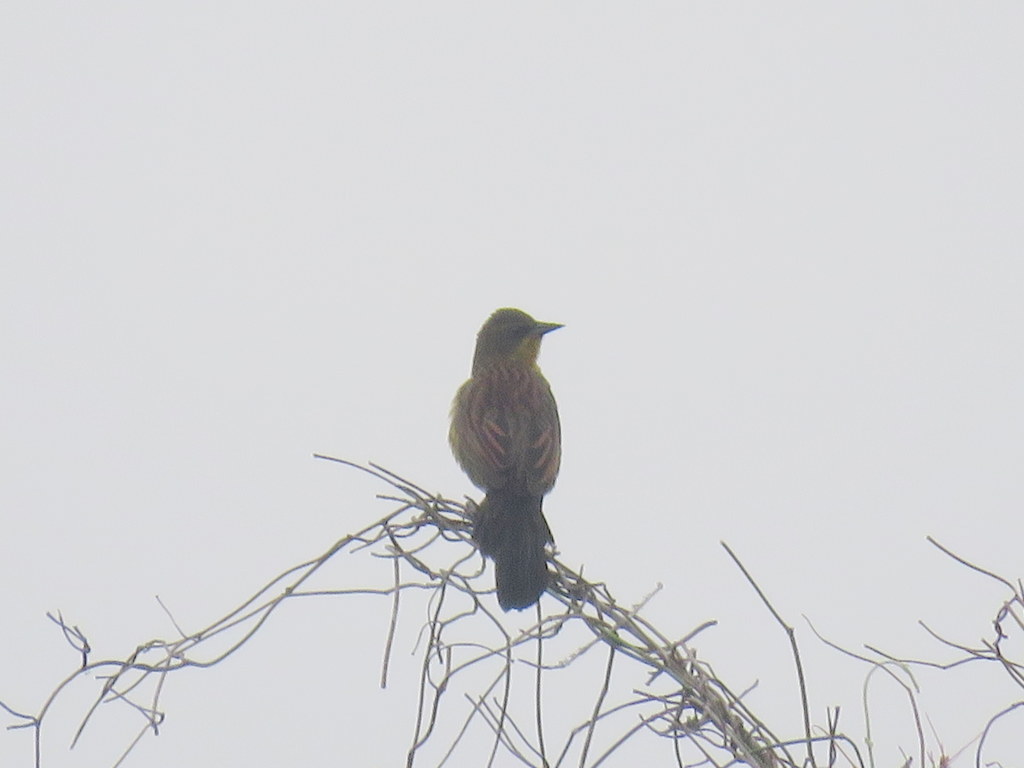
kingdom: Animalia
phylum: Chordata
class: Aves
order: Passeriformes
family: Icteridae
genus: Agelasticus
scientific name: Agelasticus cyanopus
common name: Unicolored blackbird
